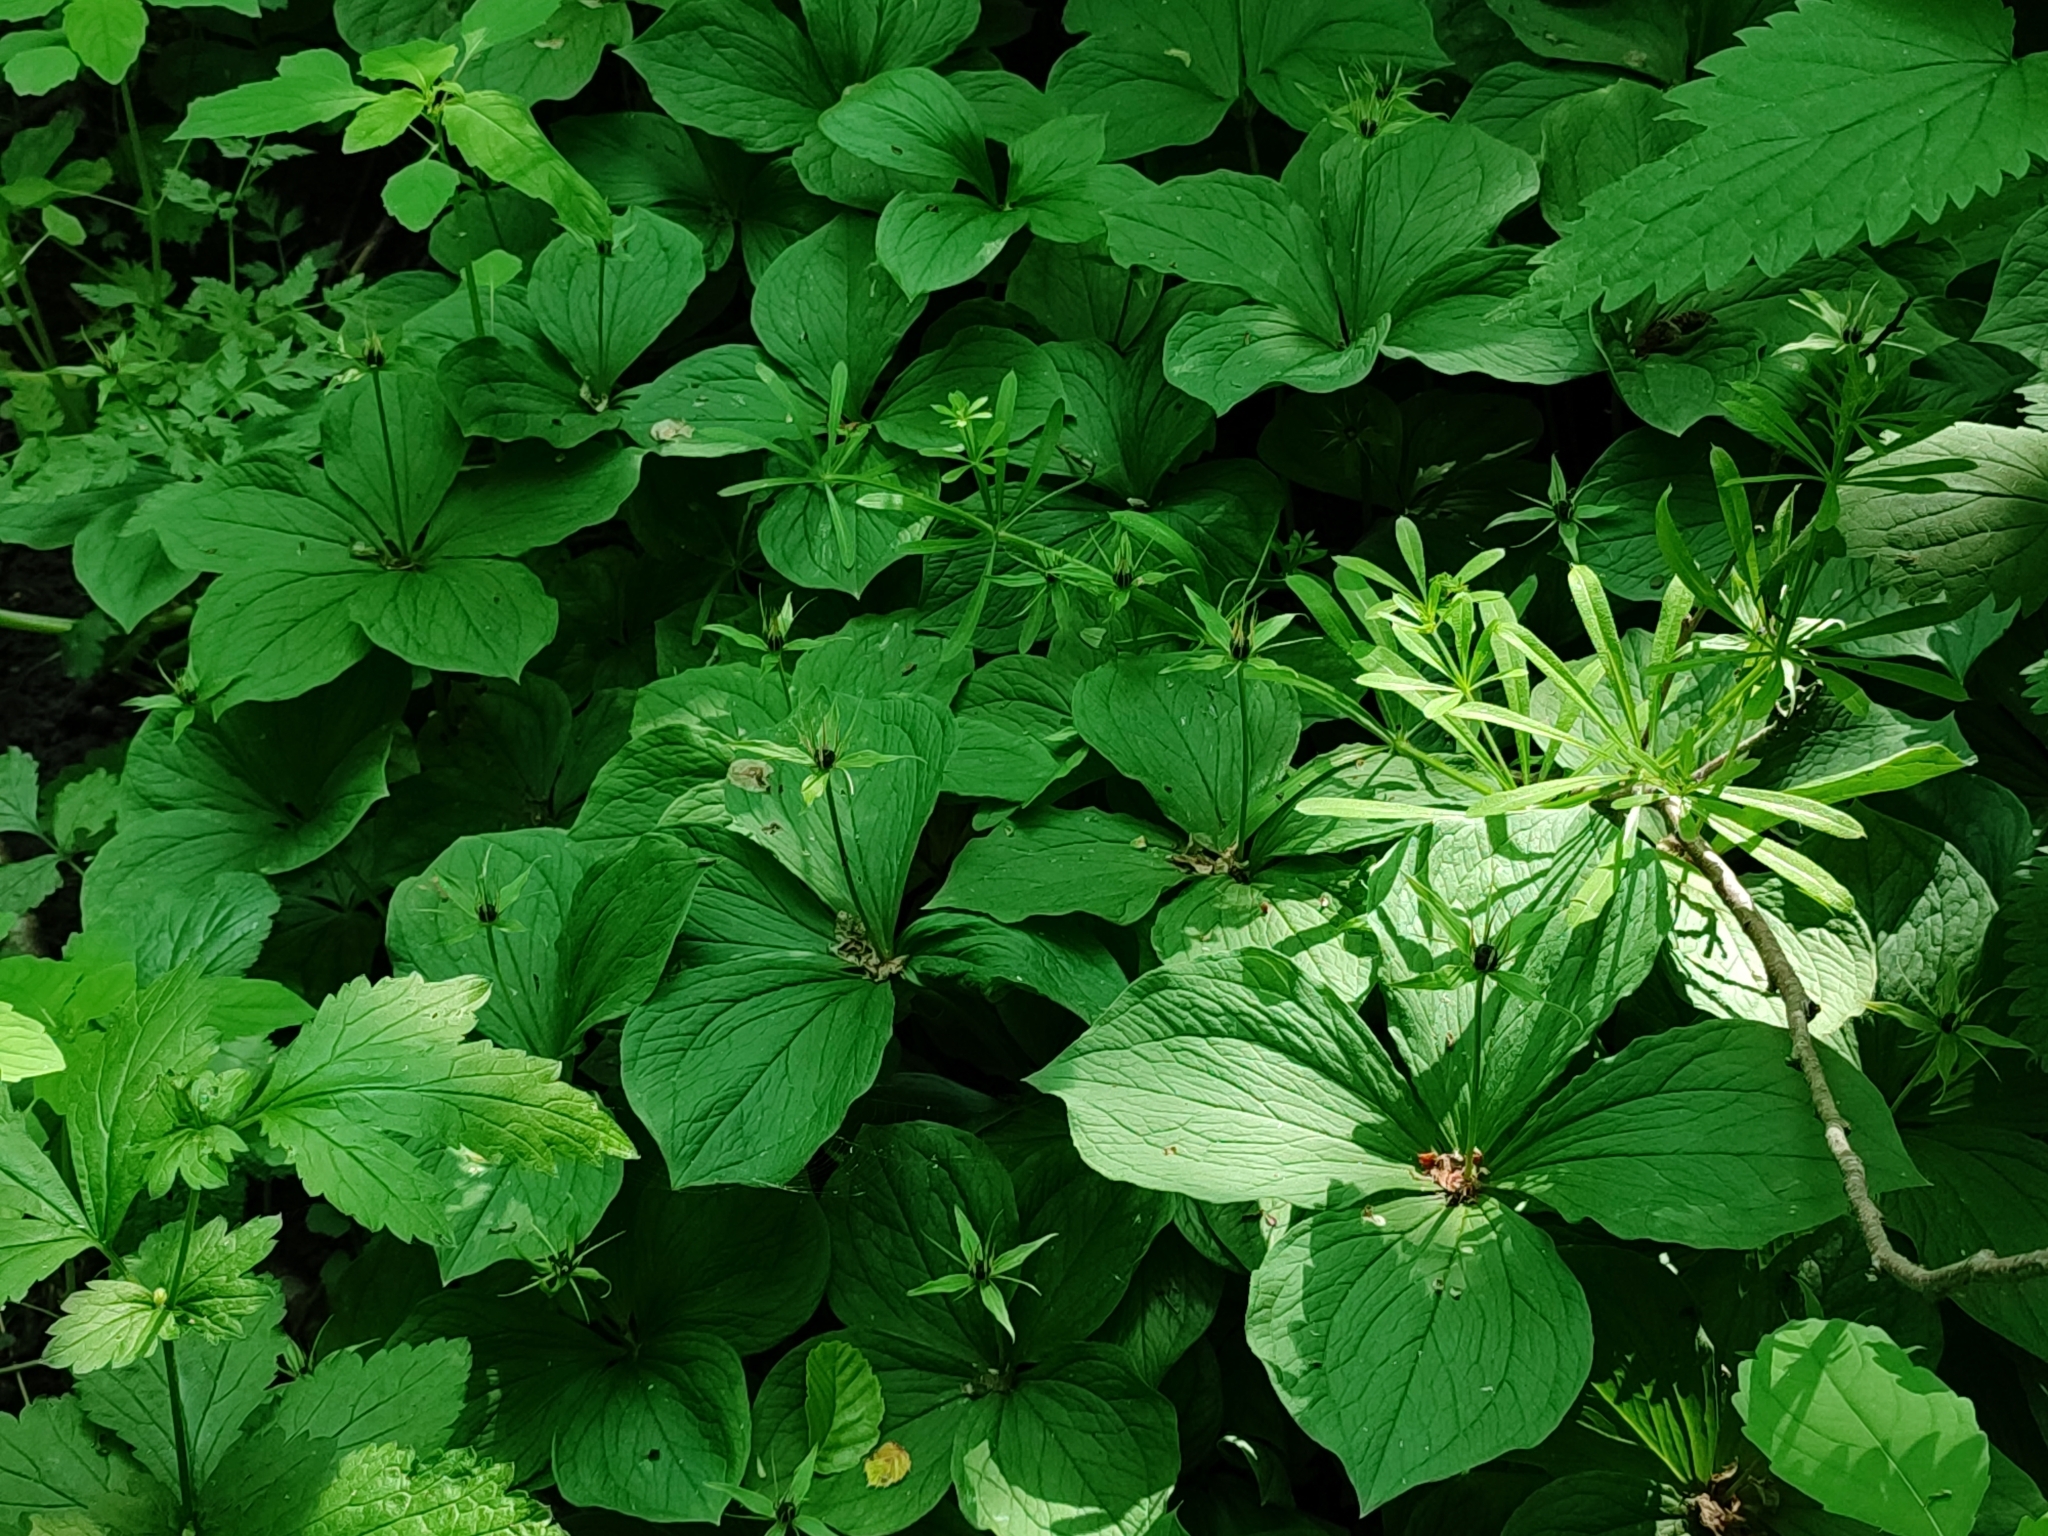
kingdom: Plantae
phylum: Tracheophyta
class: Liliopsida
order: Liliales
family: Melanthiaceae
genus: Paris
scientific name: Paris quadrifolia
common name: Herb-paris
